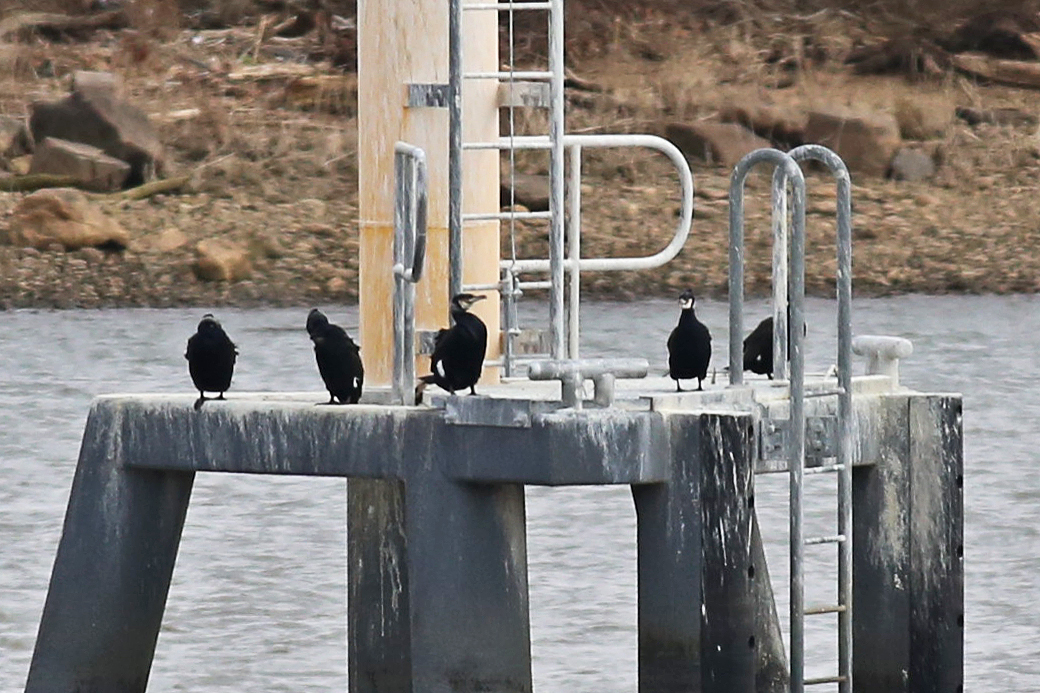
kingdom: Animalia
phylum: Chordata
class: Aves
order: Suliformes
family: Phalacrocoracidae
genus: Phalacrocorax
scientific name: Phalacrocorax carbo
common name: Great cormorant
